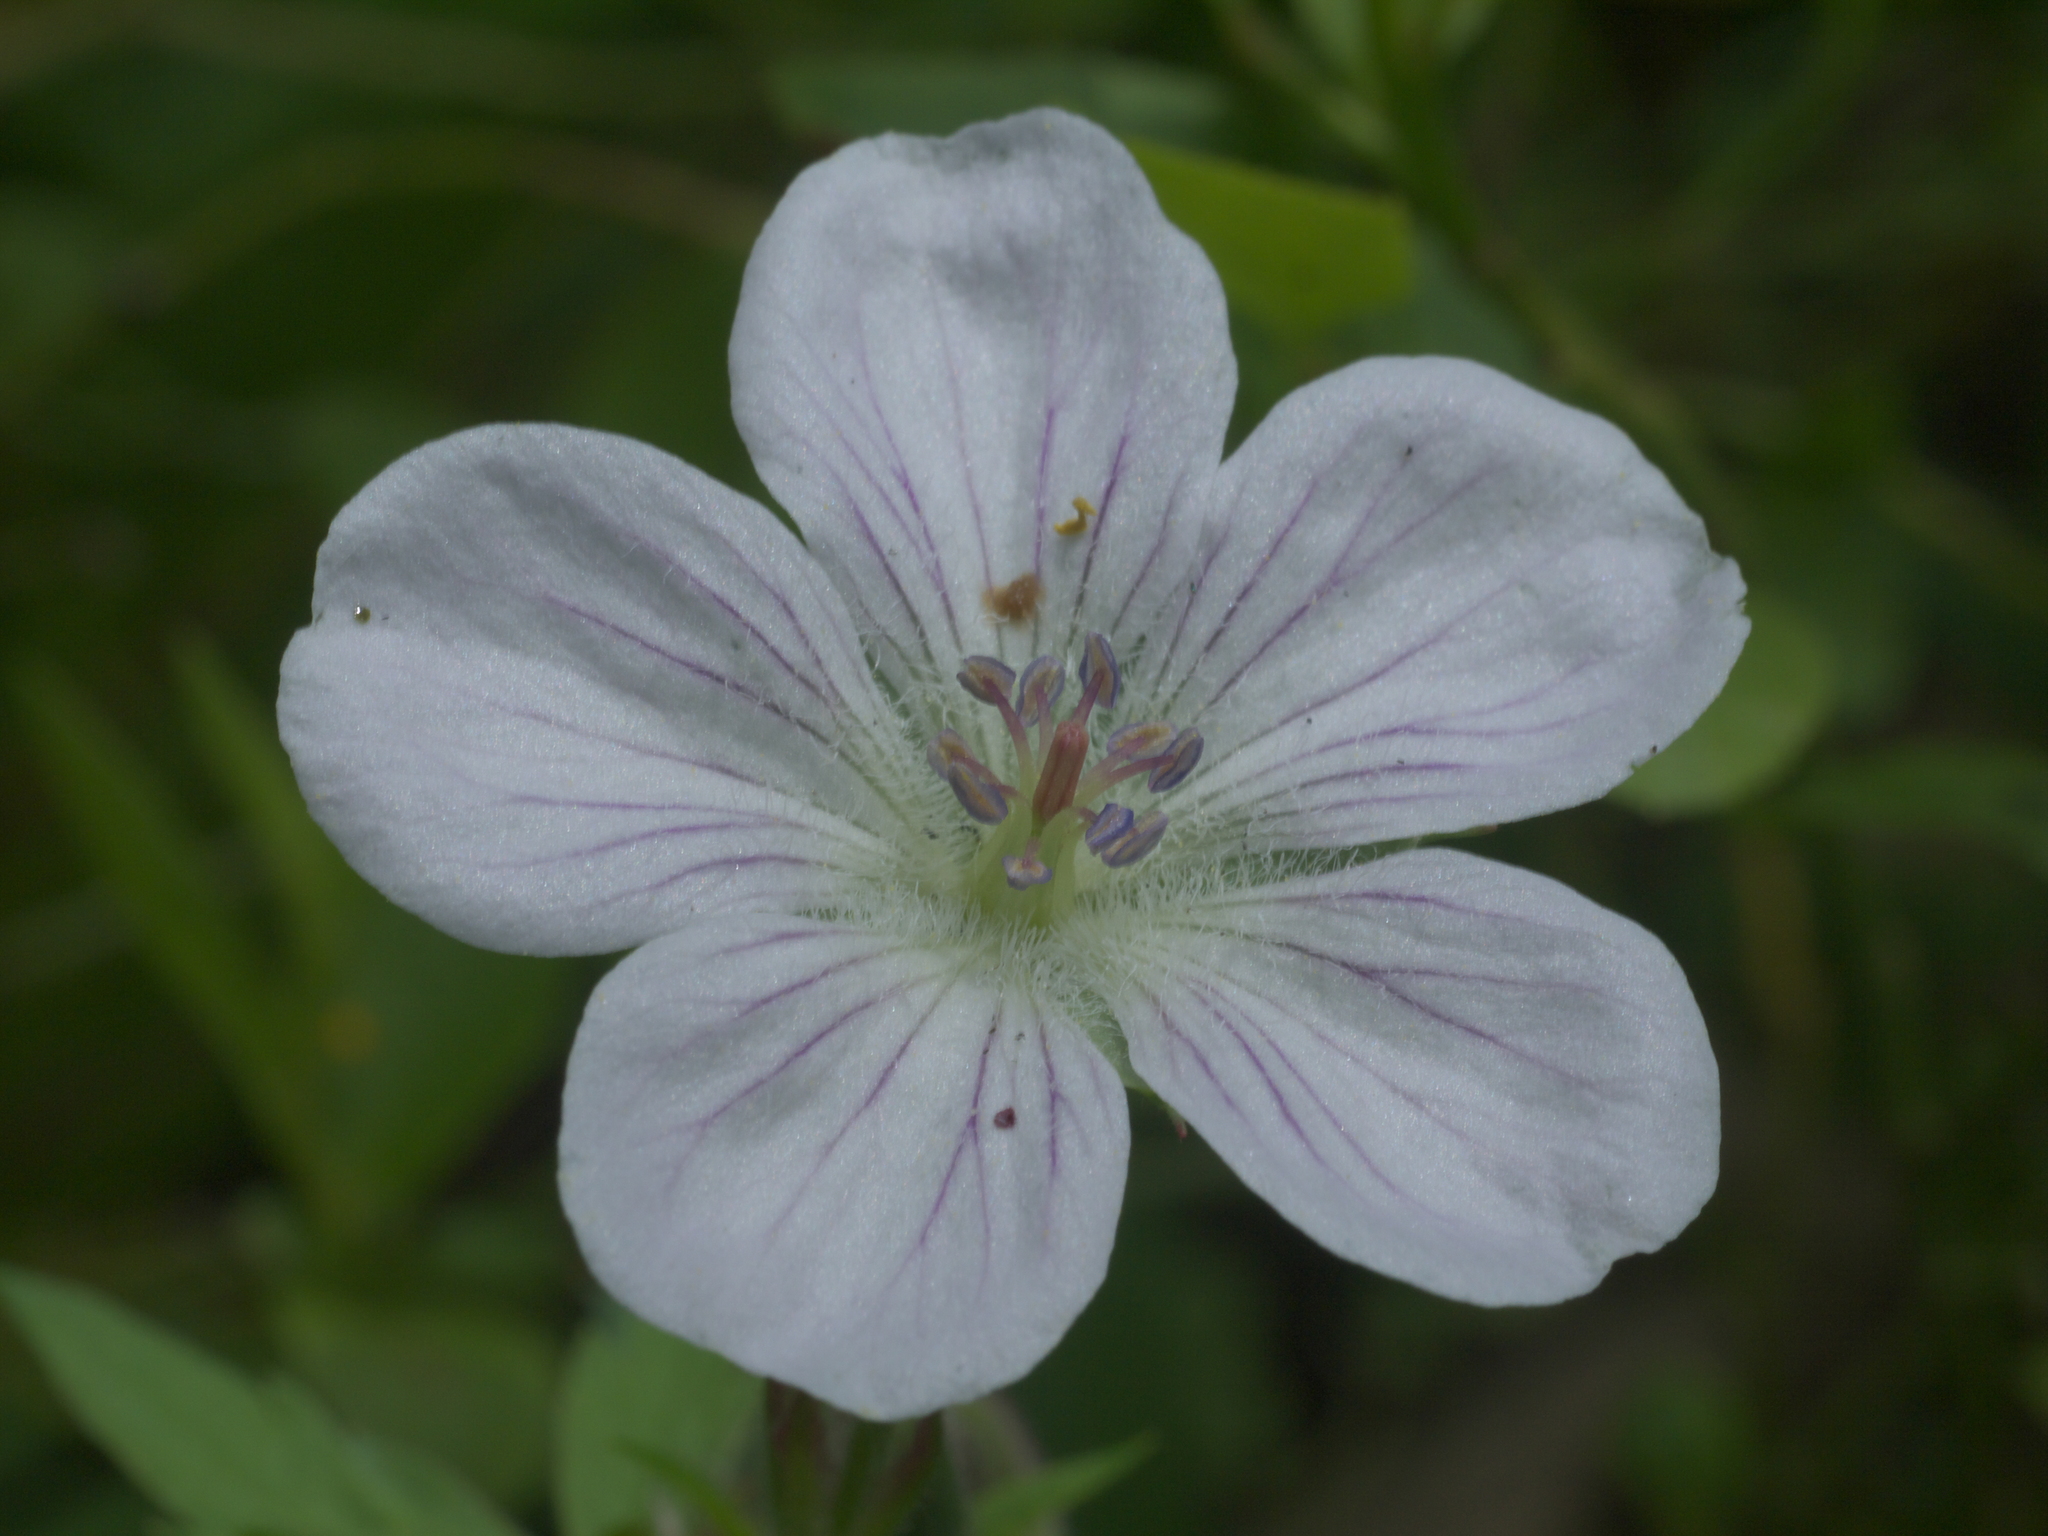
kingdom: Plantae
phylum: Tracheophyta
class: Magnoliopsida
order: Geraniales
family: Geraniaceae
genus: Geranium
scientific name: Geranium richardsonii
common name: Richardson's crane's-bill
